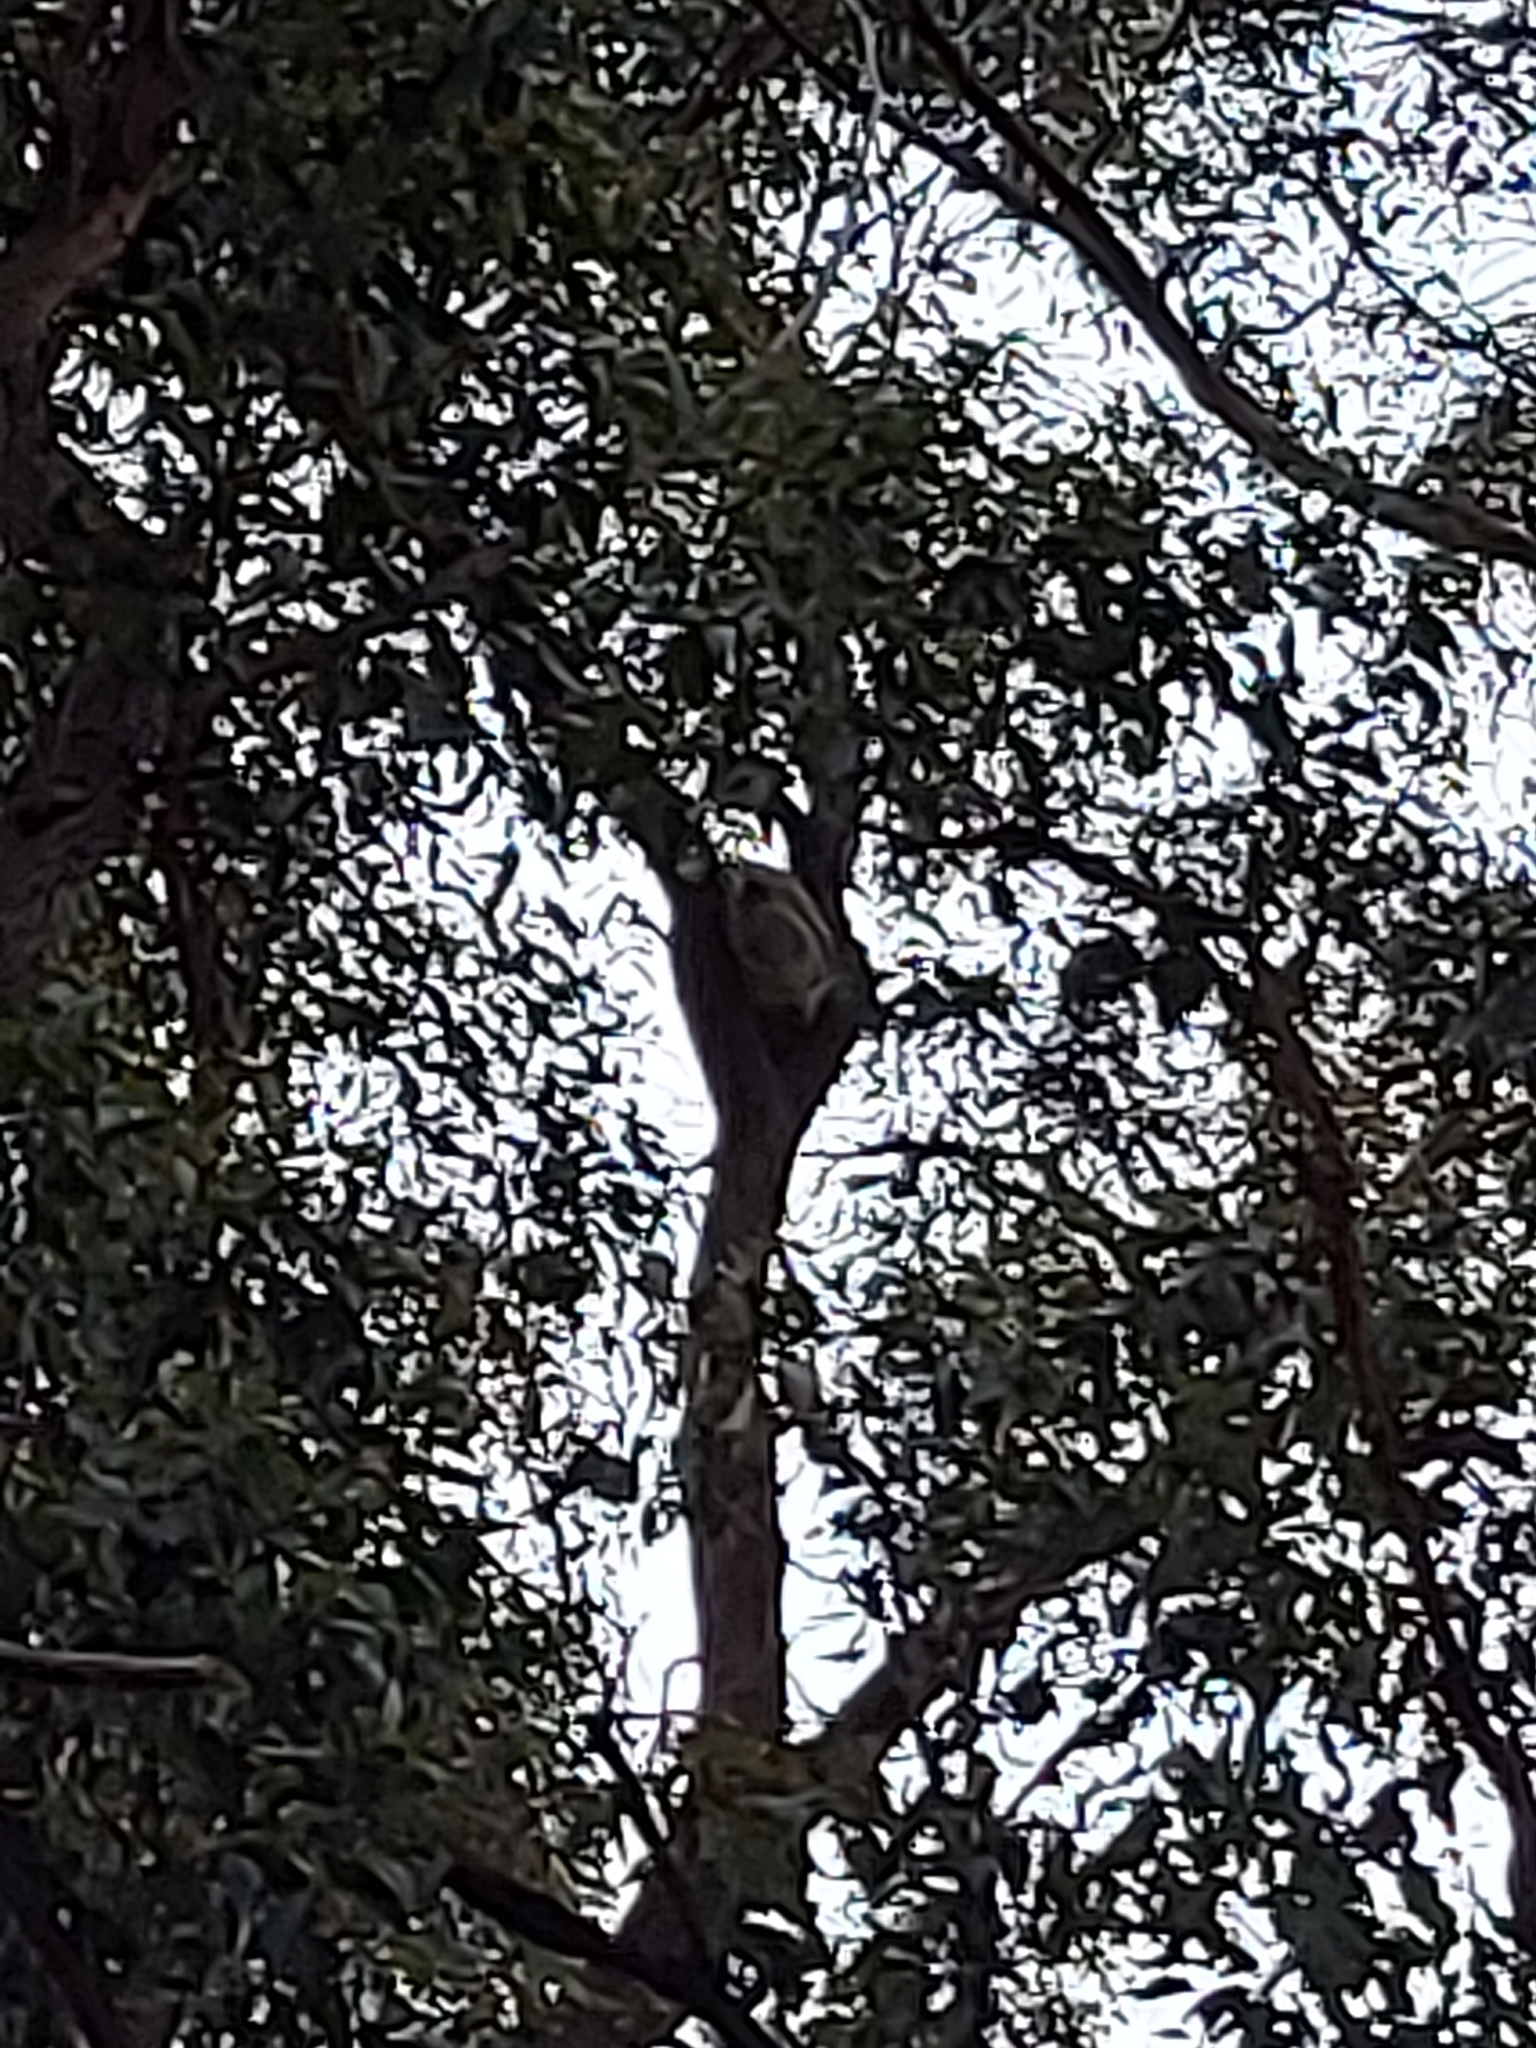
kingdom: Animalia
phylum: Chordata
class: Mammalia
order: Diprotodontia
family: Phascolarctidae
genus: Phascolarctos
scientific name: Phascolarctos cinereus
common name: Koala
